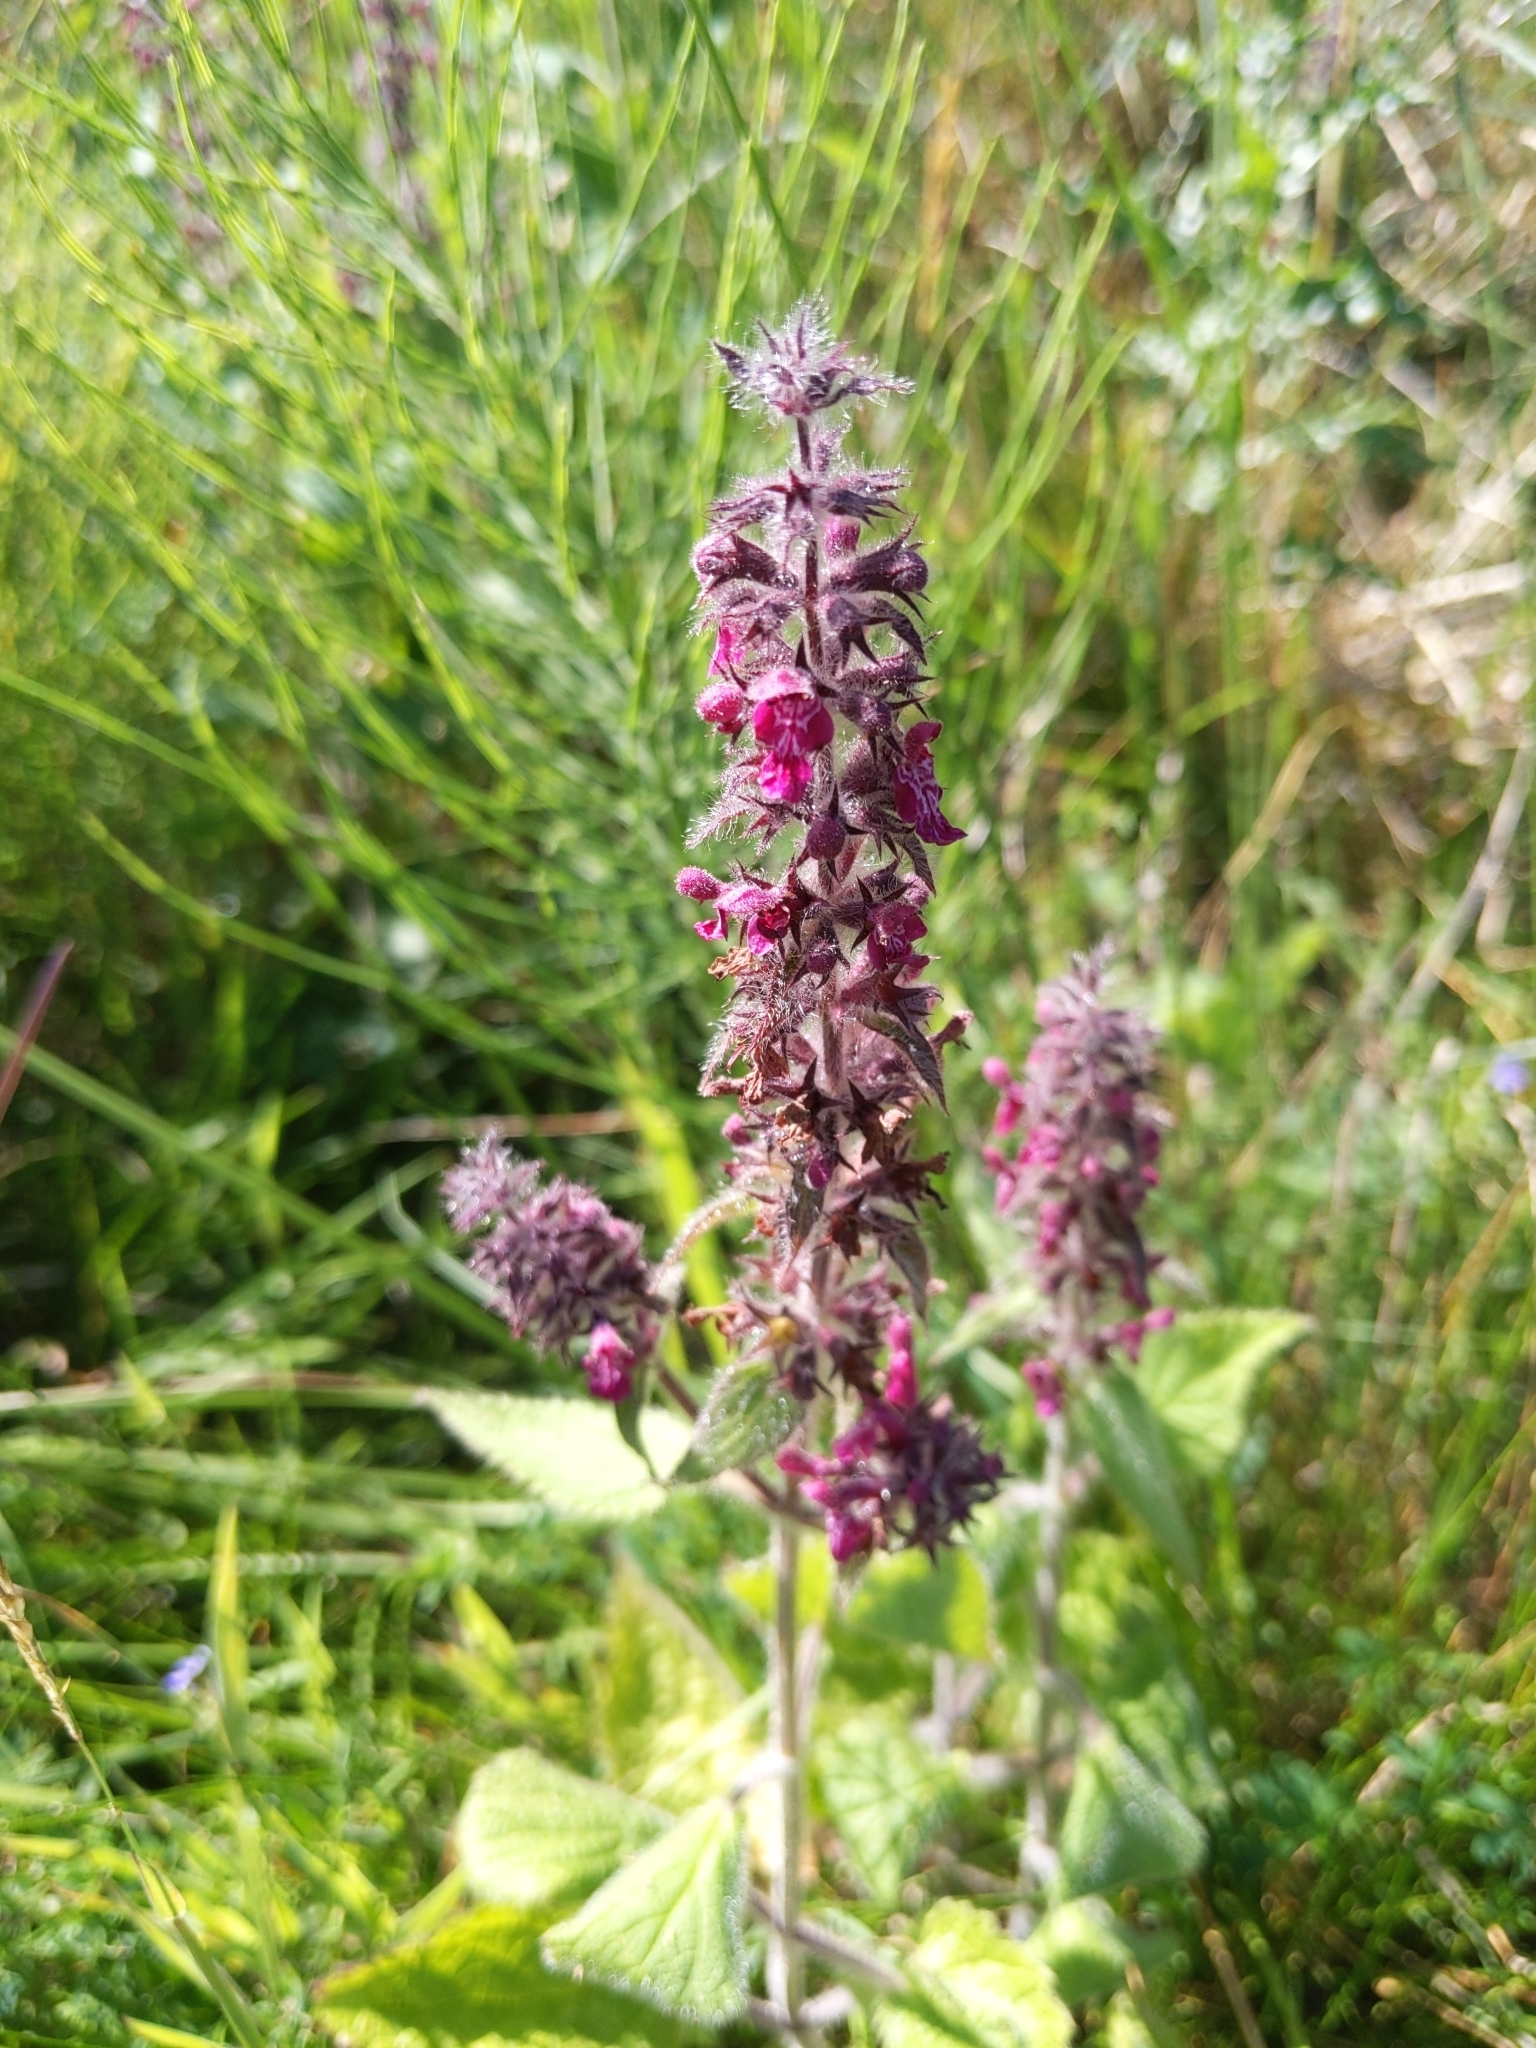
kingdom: Plantae
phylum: Tracheophyta
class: Magnoliopsida
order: Lamiales
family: Lamiaceae
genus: Stachys
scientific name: Stachys sylvatica
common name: Hedge woundwort
